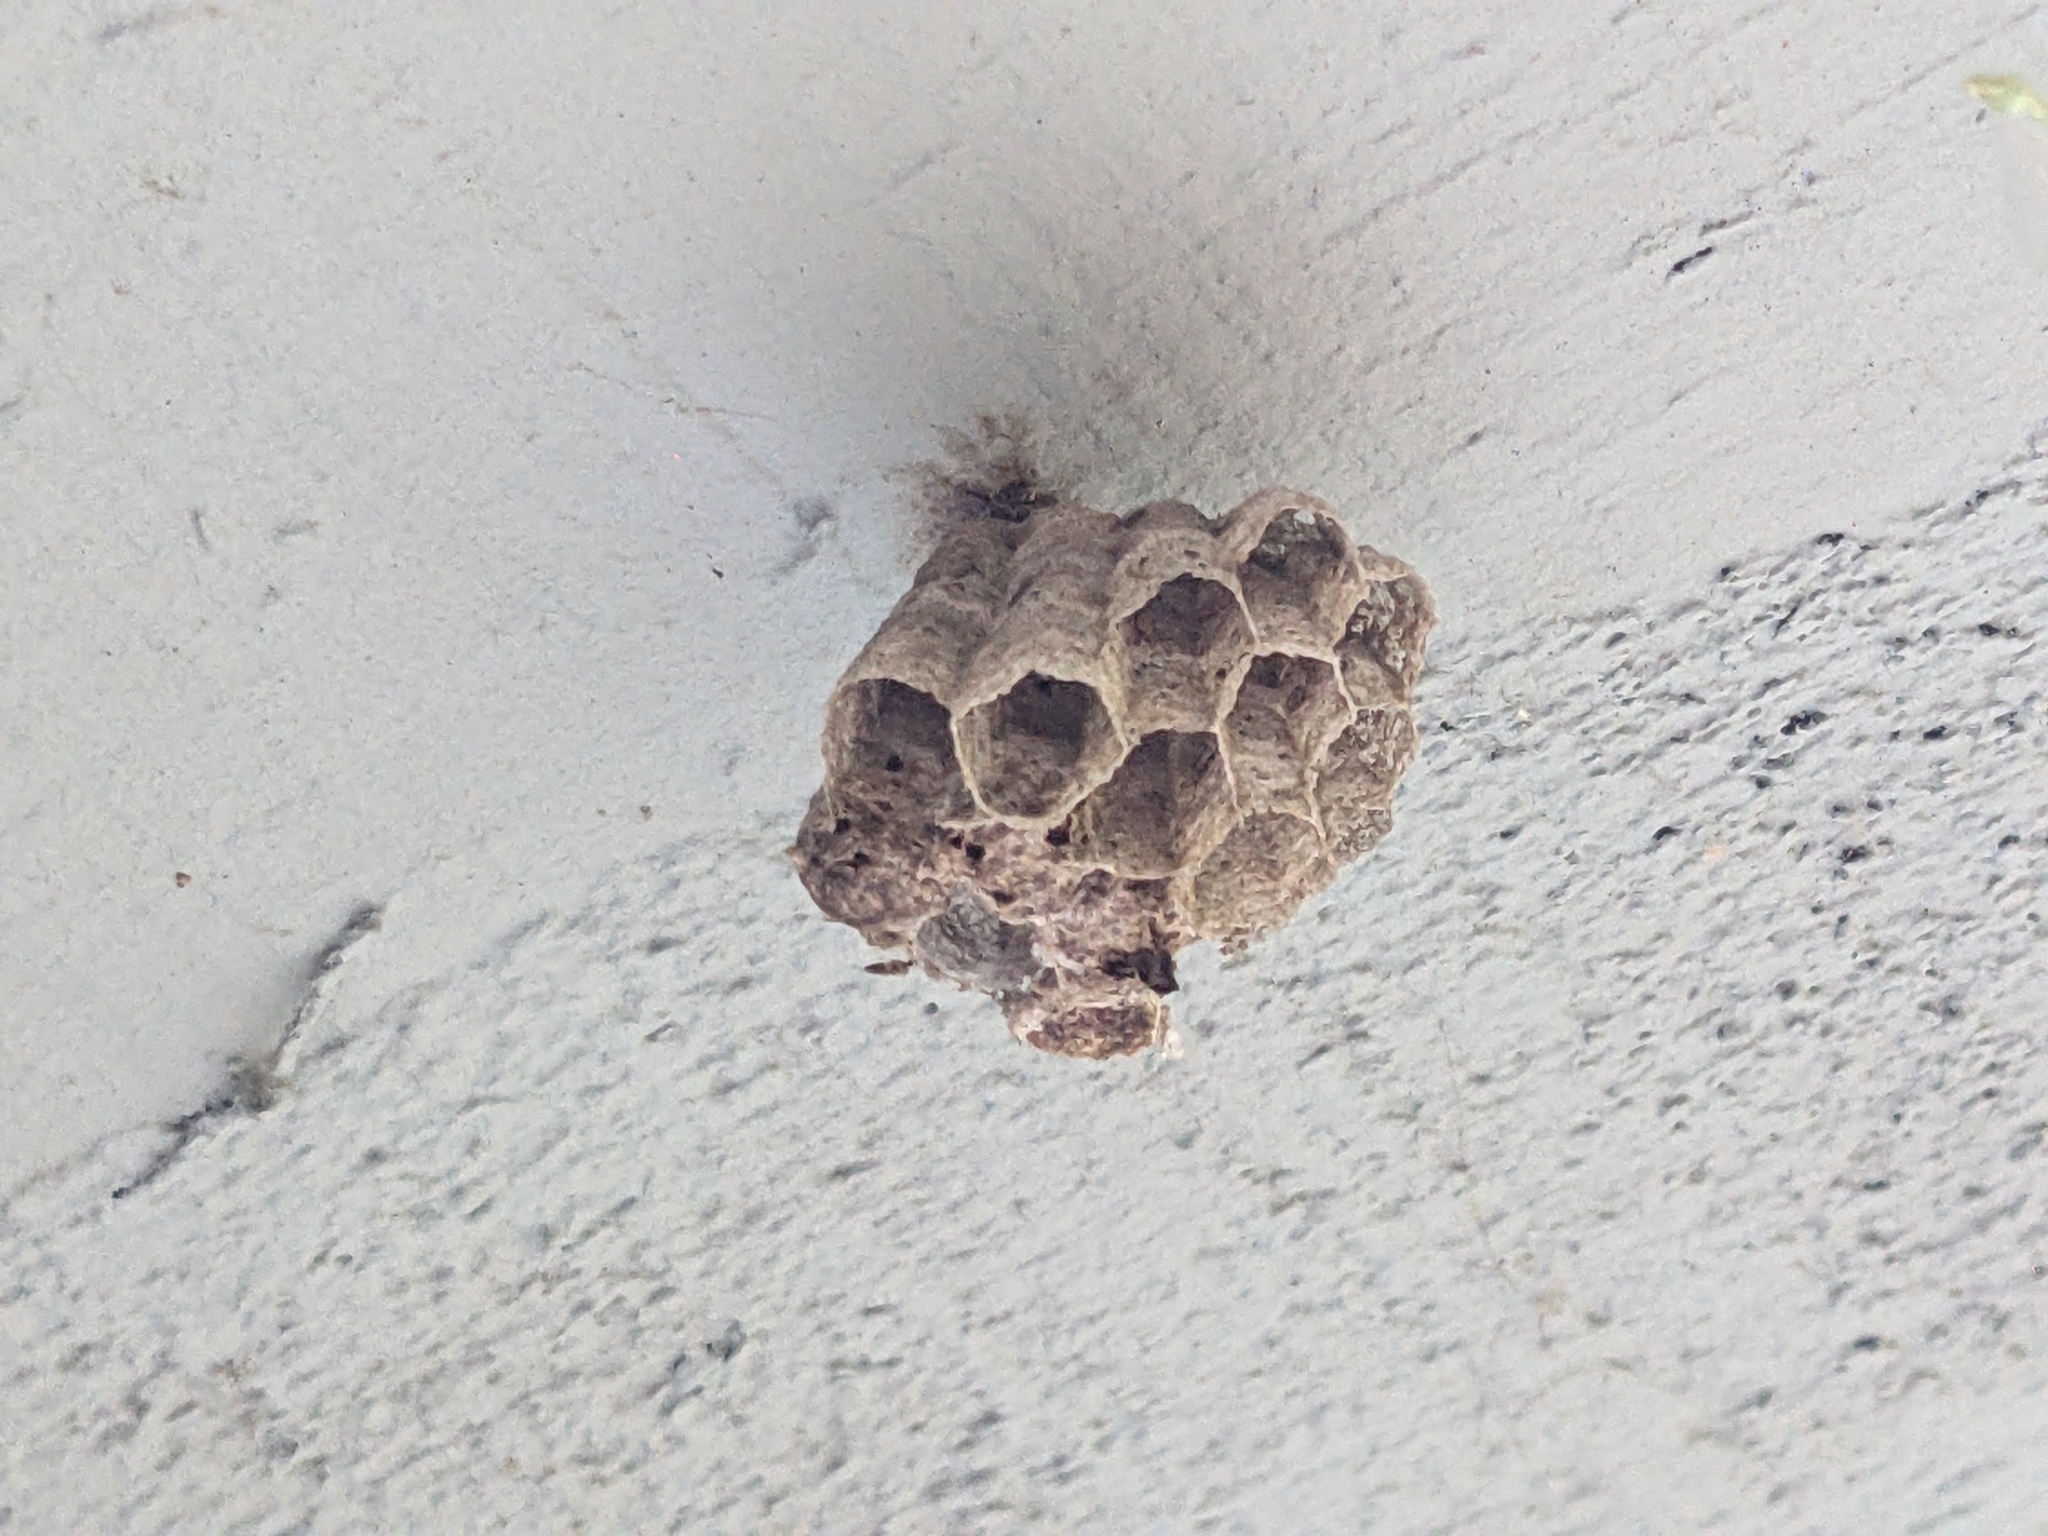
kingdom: Animalia
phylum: Arthropoda
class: Insecta
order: Hymenoptera
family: Eumenidae
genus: Polistes
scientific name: Polistes
